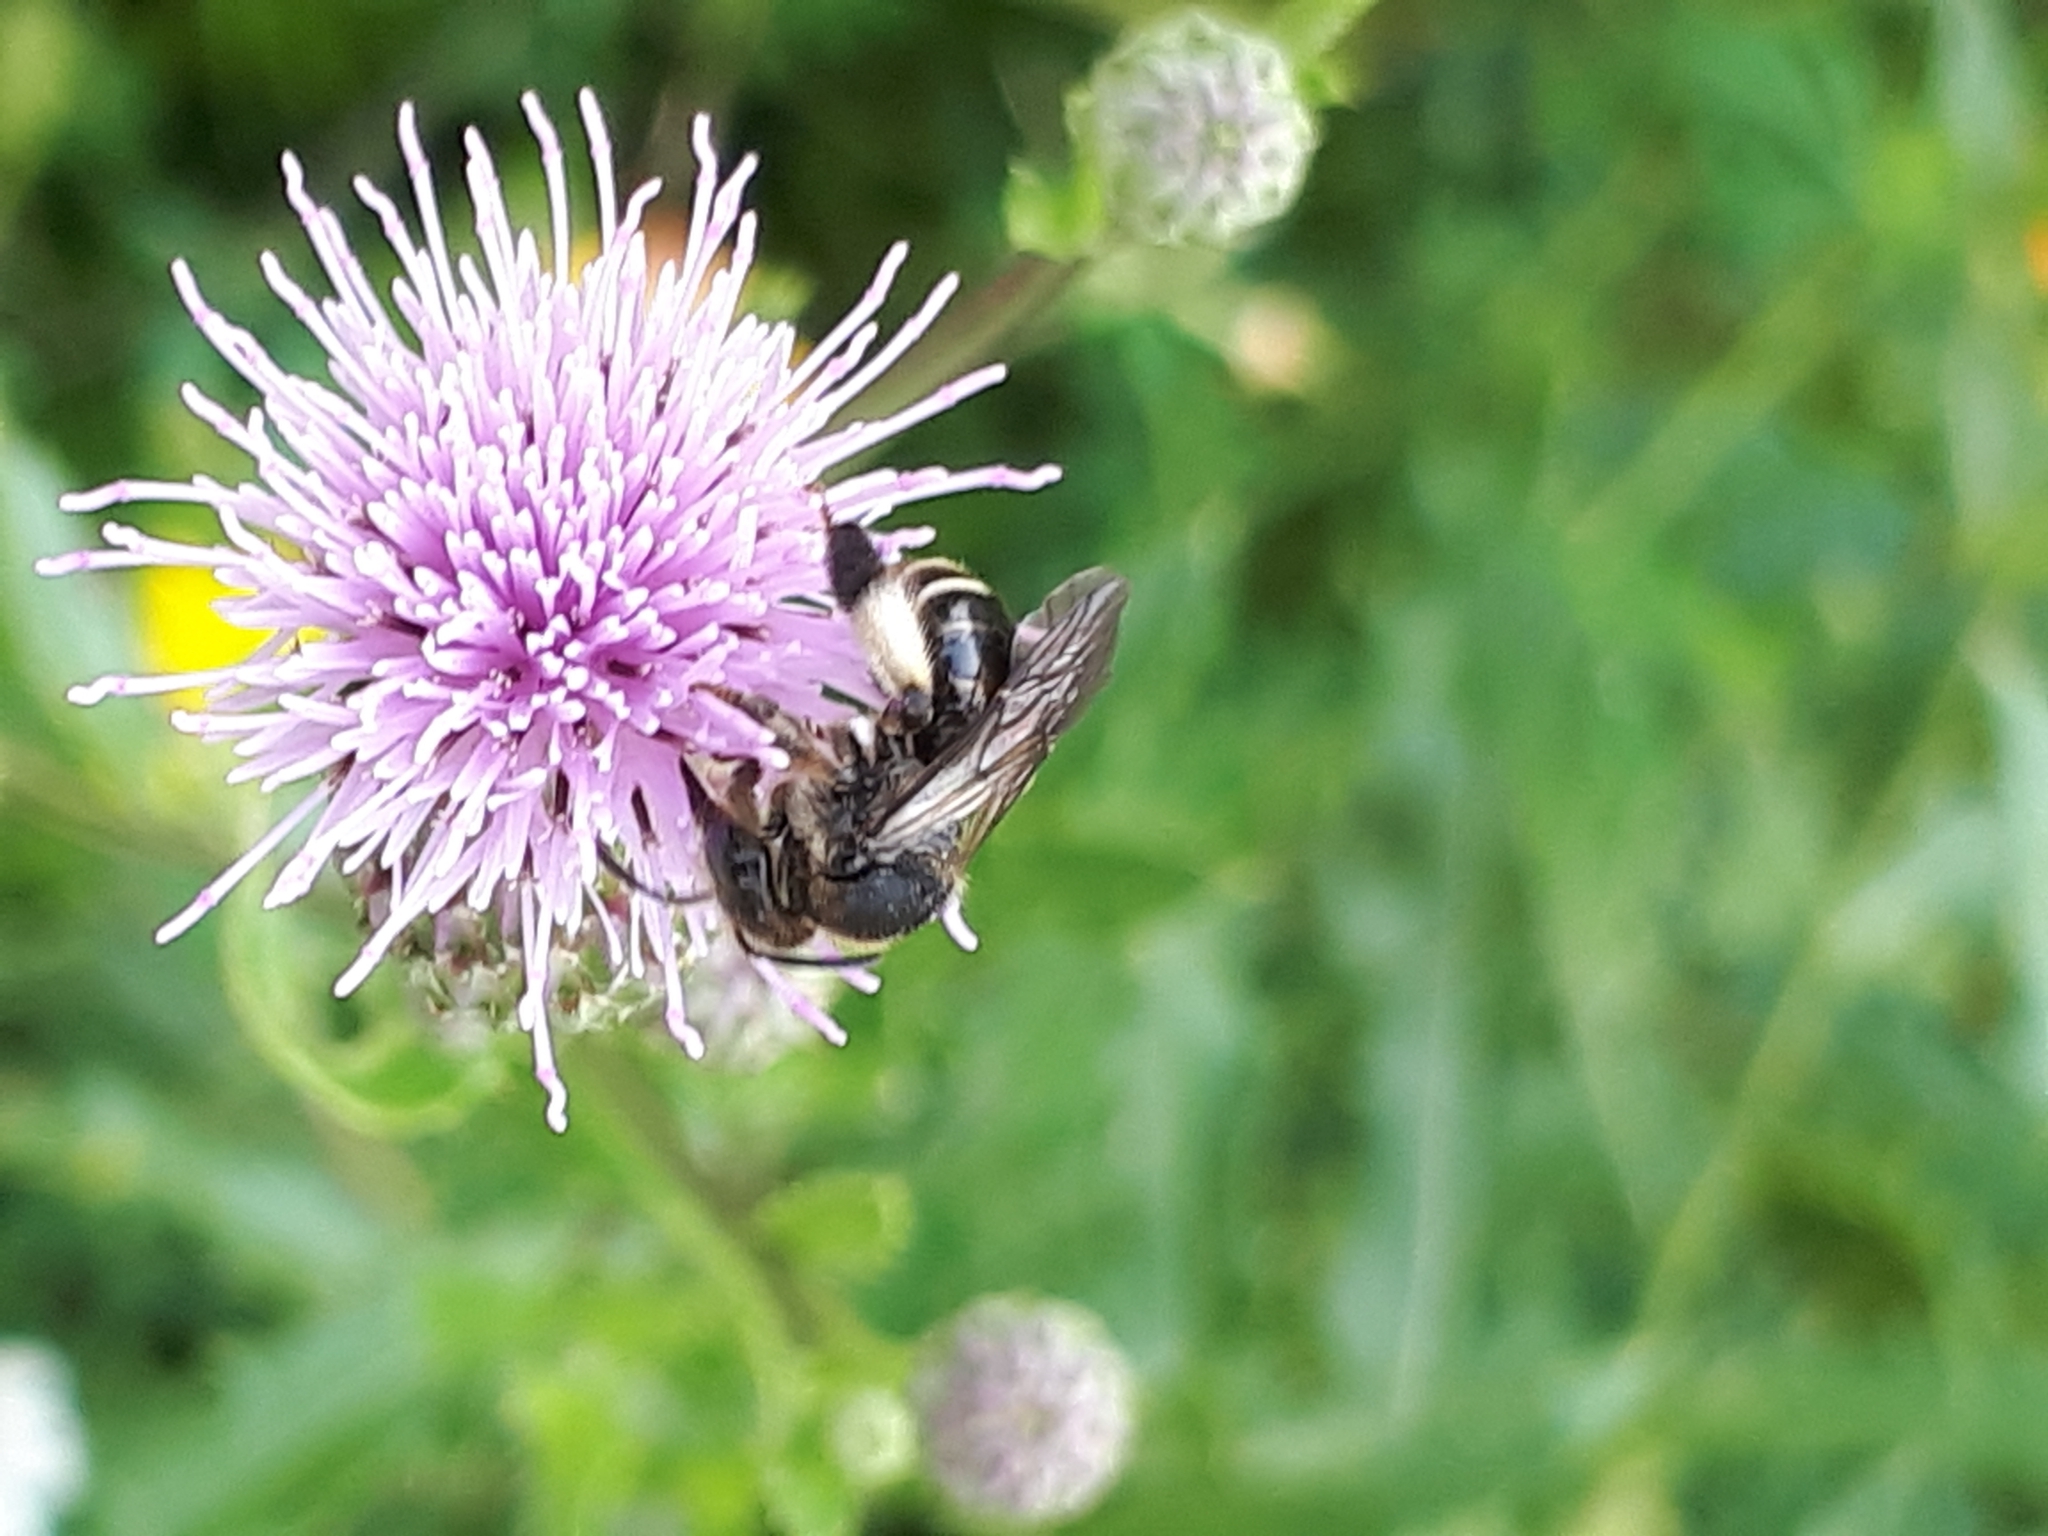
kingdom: Animalia
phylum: Arthropoda
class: Insecta
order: Hymenoptera
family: Melittidae
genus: Macropis
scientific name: Macropis europaea
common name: Yellow loosestrife bee
